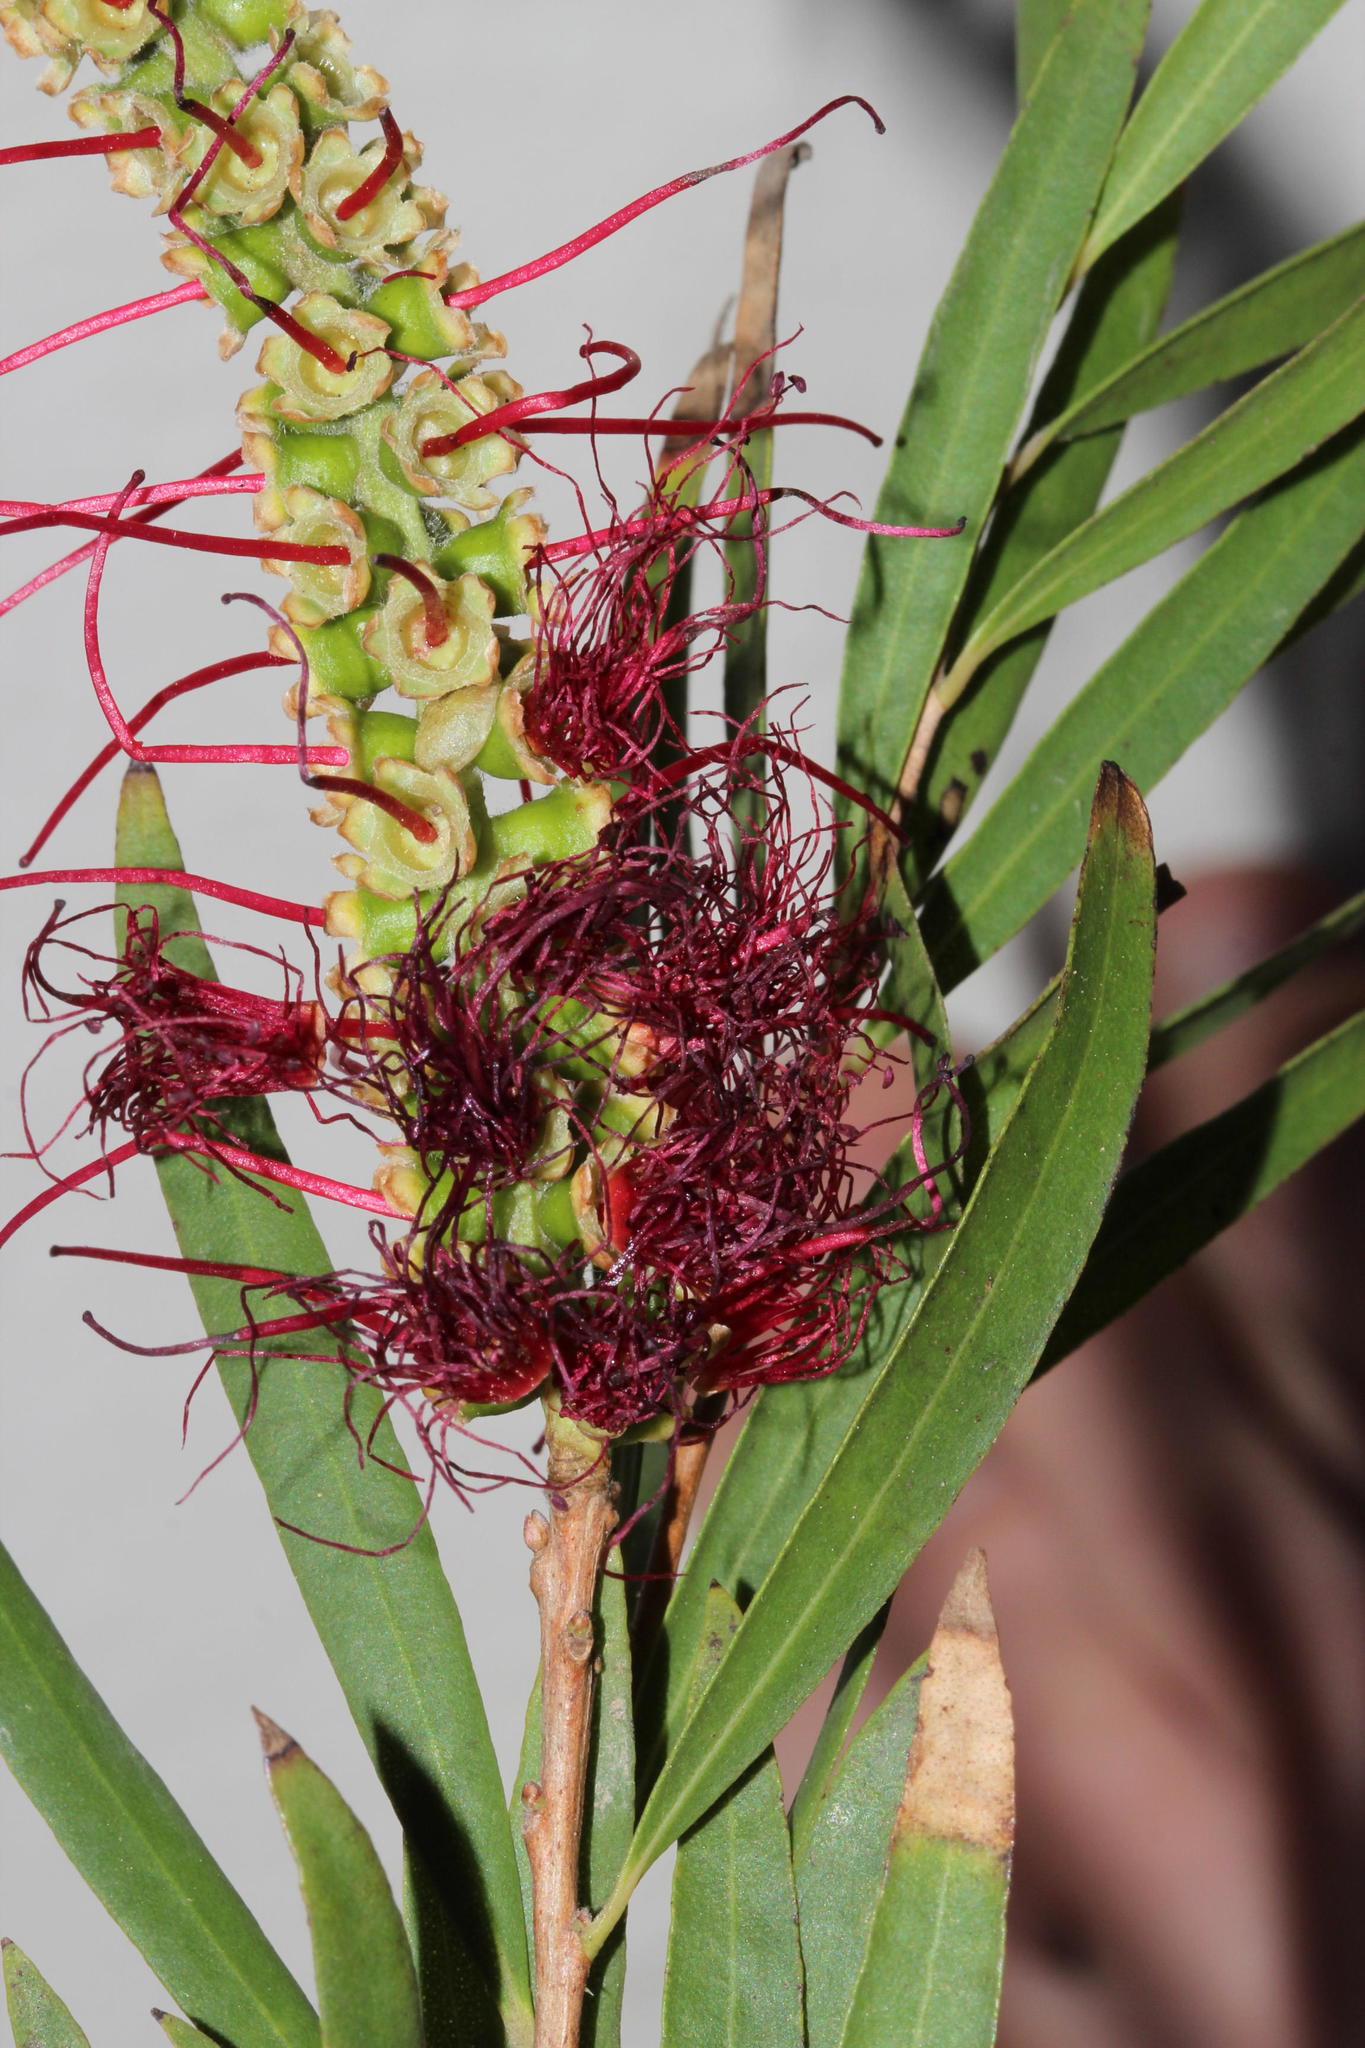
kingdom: Plantae
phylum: Tracheophyta
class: Magnoliopsida
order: Myrtales
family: Myrtaceae
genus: Callistemon
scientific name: Callistemon viminalis
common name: Drooping bottlebrush
